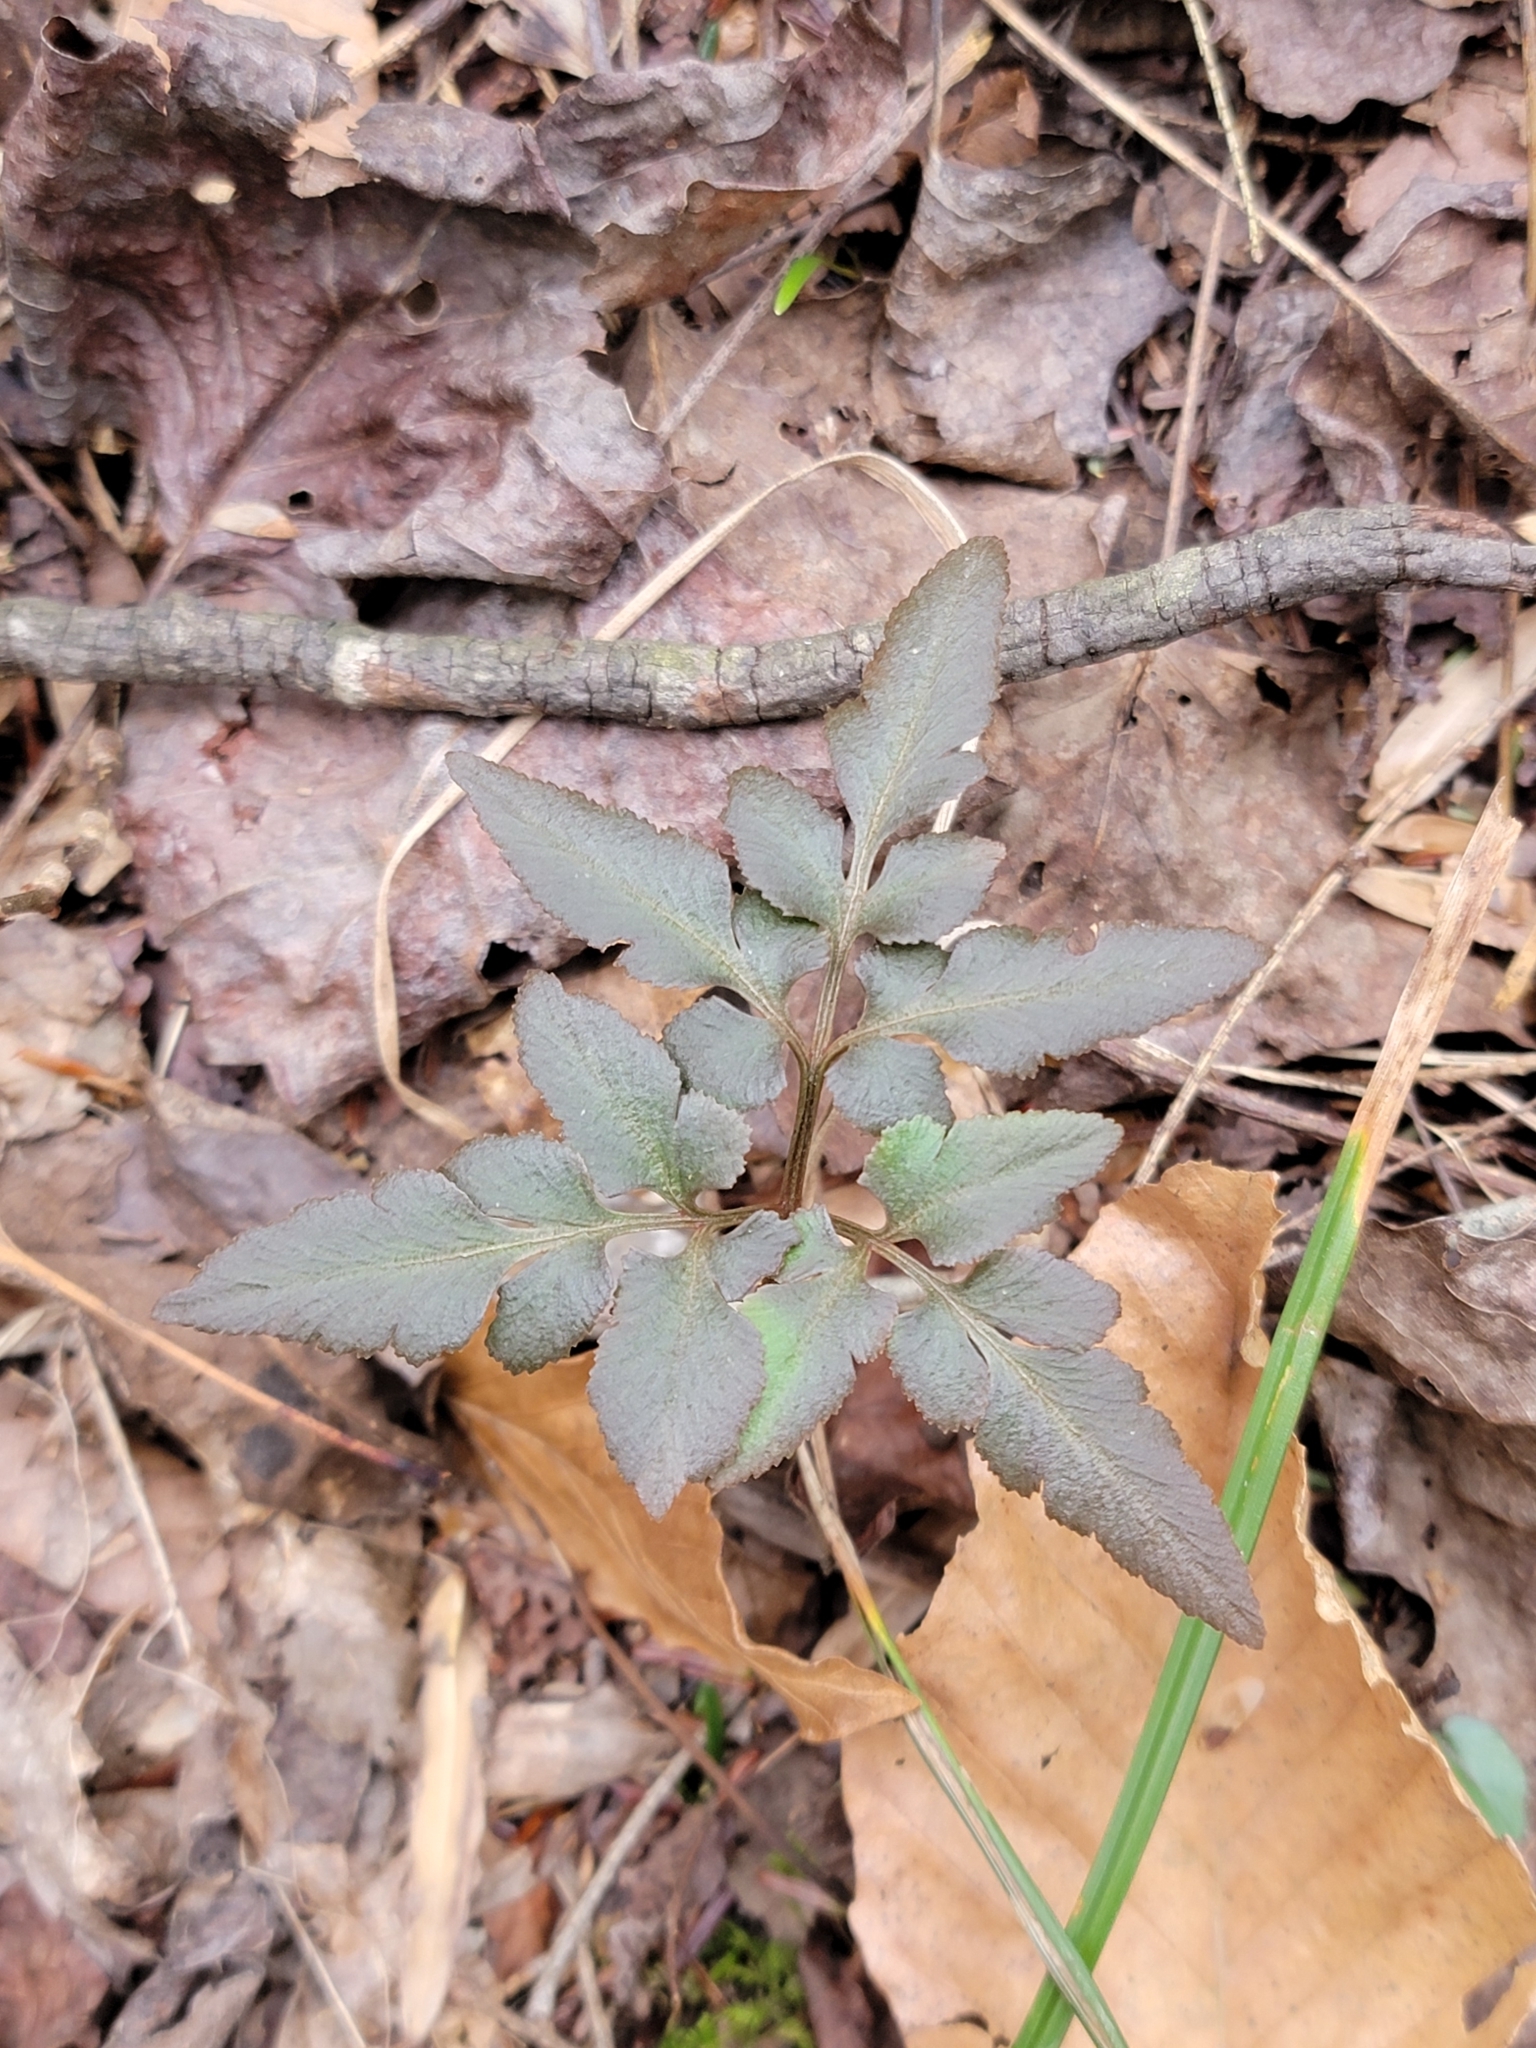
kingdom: Plantae
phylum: Tracheophyta
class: Polypodiopsida
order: Ophioglossales
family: Ophioglossaceae
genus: Sceptridium
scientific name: Sceptridium dissectum
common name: Cut-leaved grapefern
